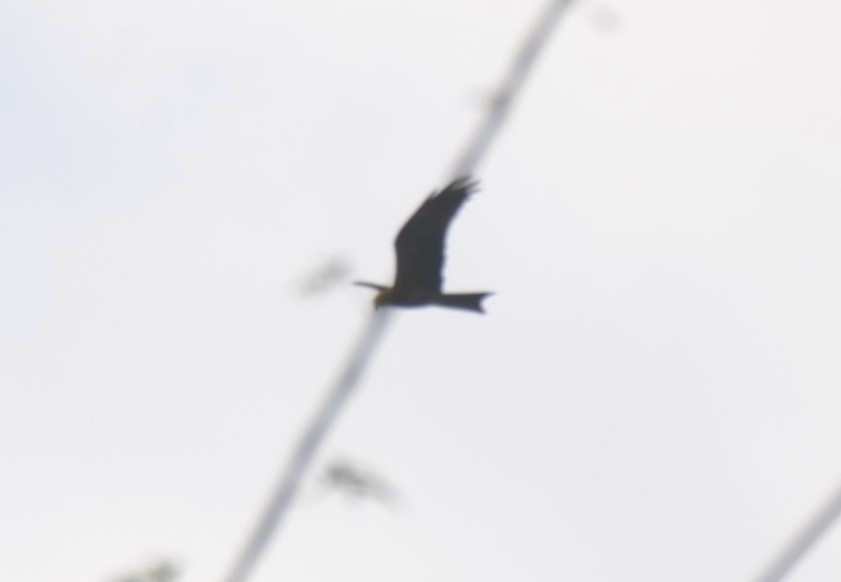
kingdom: Animalia
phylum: Chordata
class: Aves
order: Accipitriformes
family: Accipitridae
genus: Milvus
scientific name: Milvus migrans
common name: Black kite
